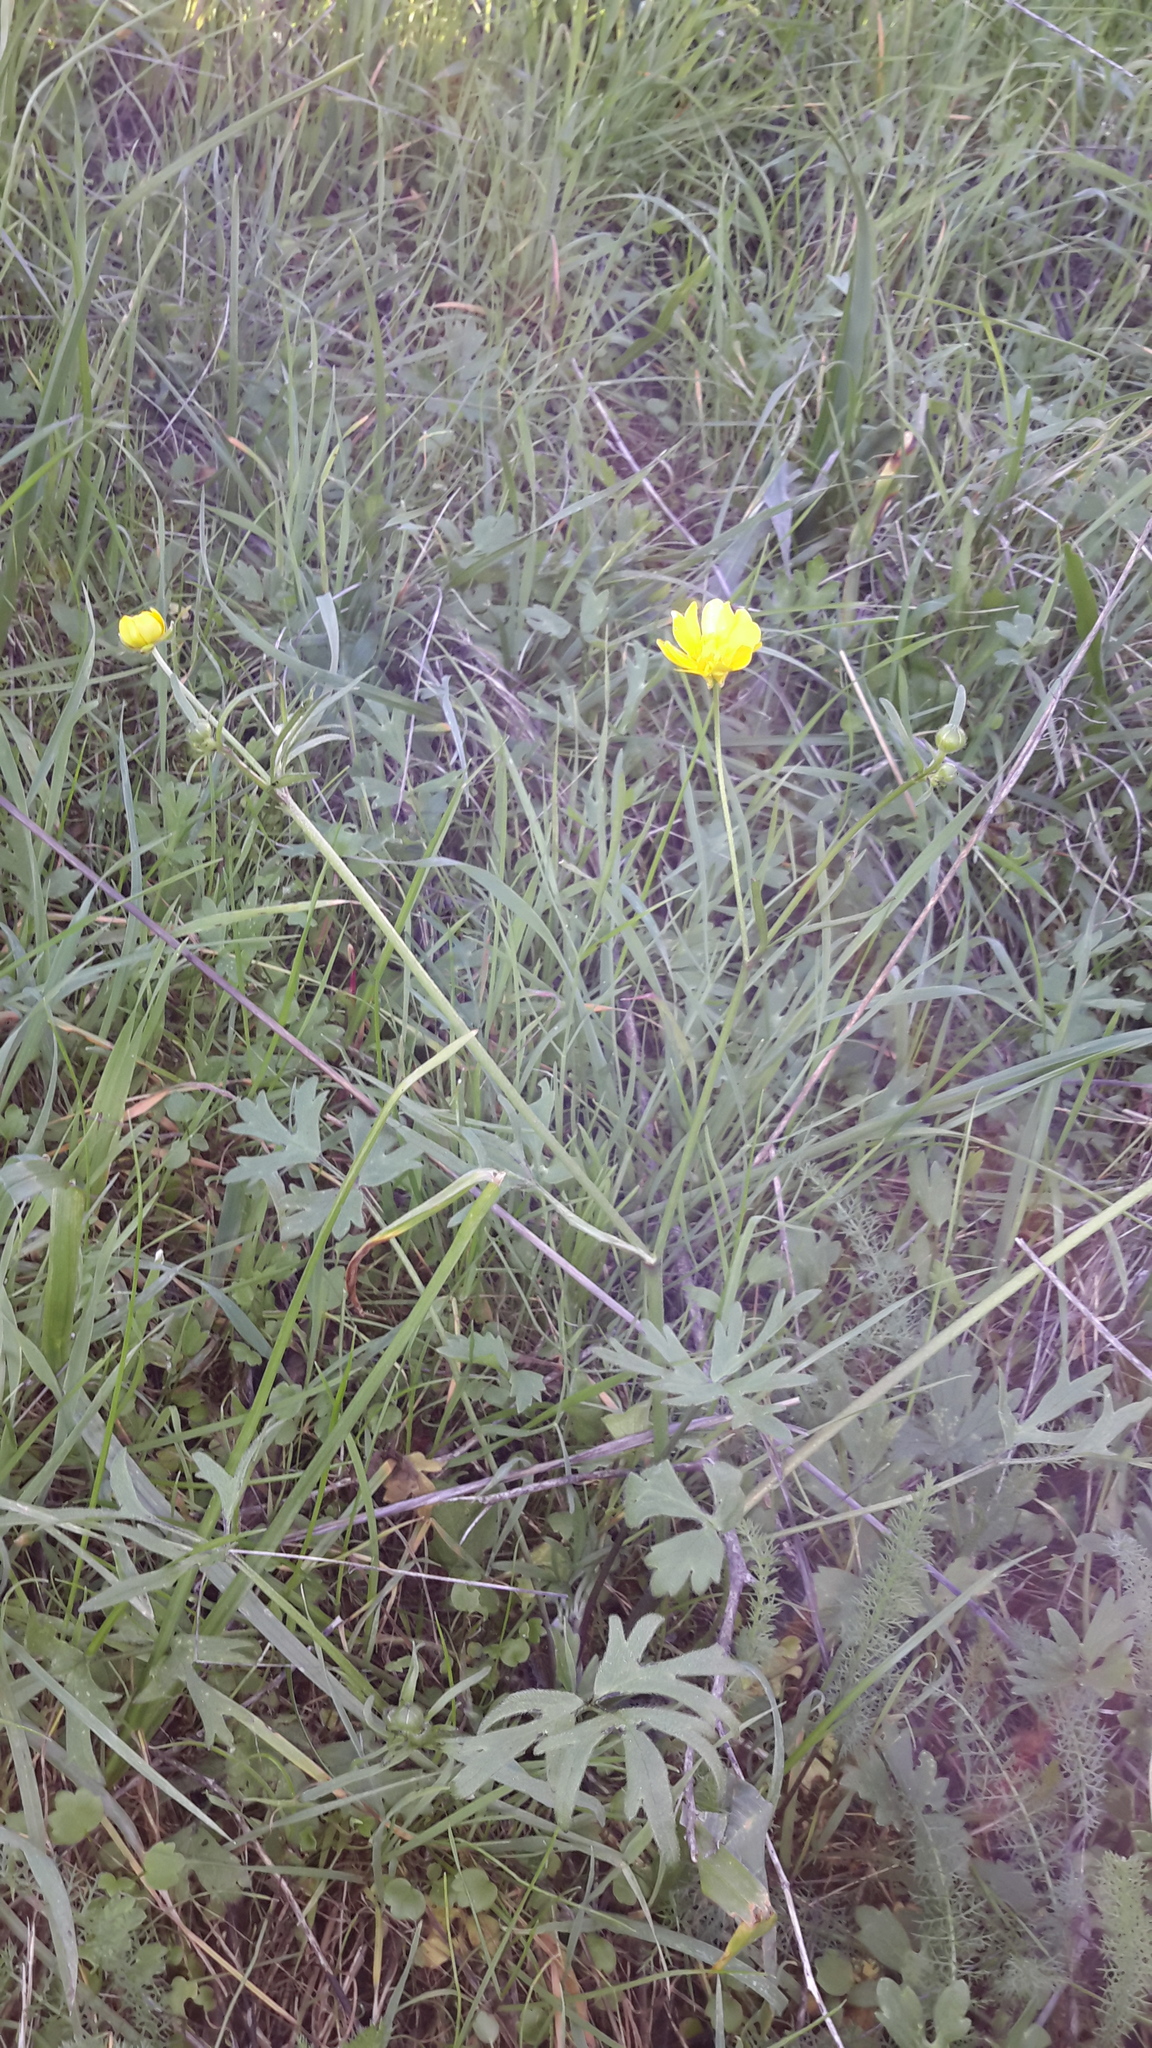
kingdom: Plantae
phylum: Tracheophyta
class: Magnoliopsida
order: Ranunculales
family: Ranunculaceae
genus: Ranunculus
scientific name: Ranunculus californicus
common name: California buttercup
